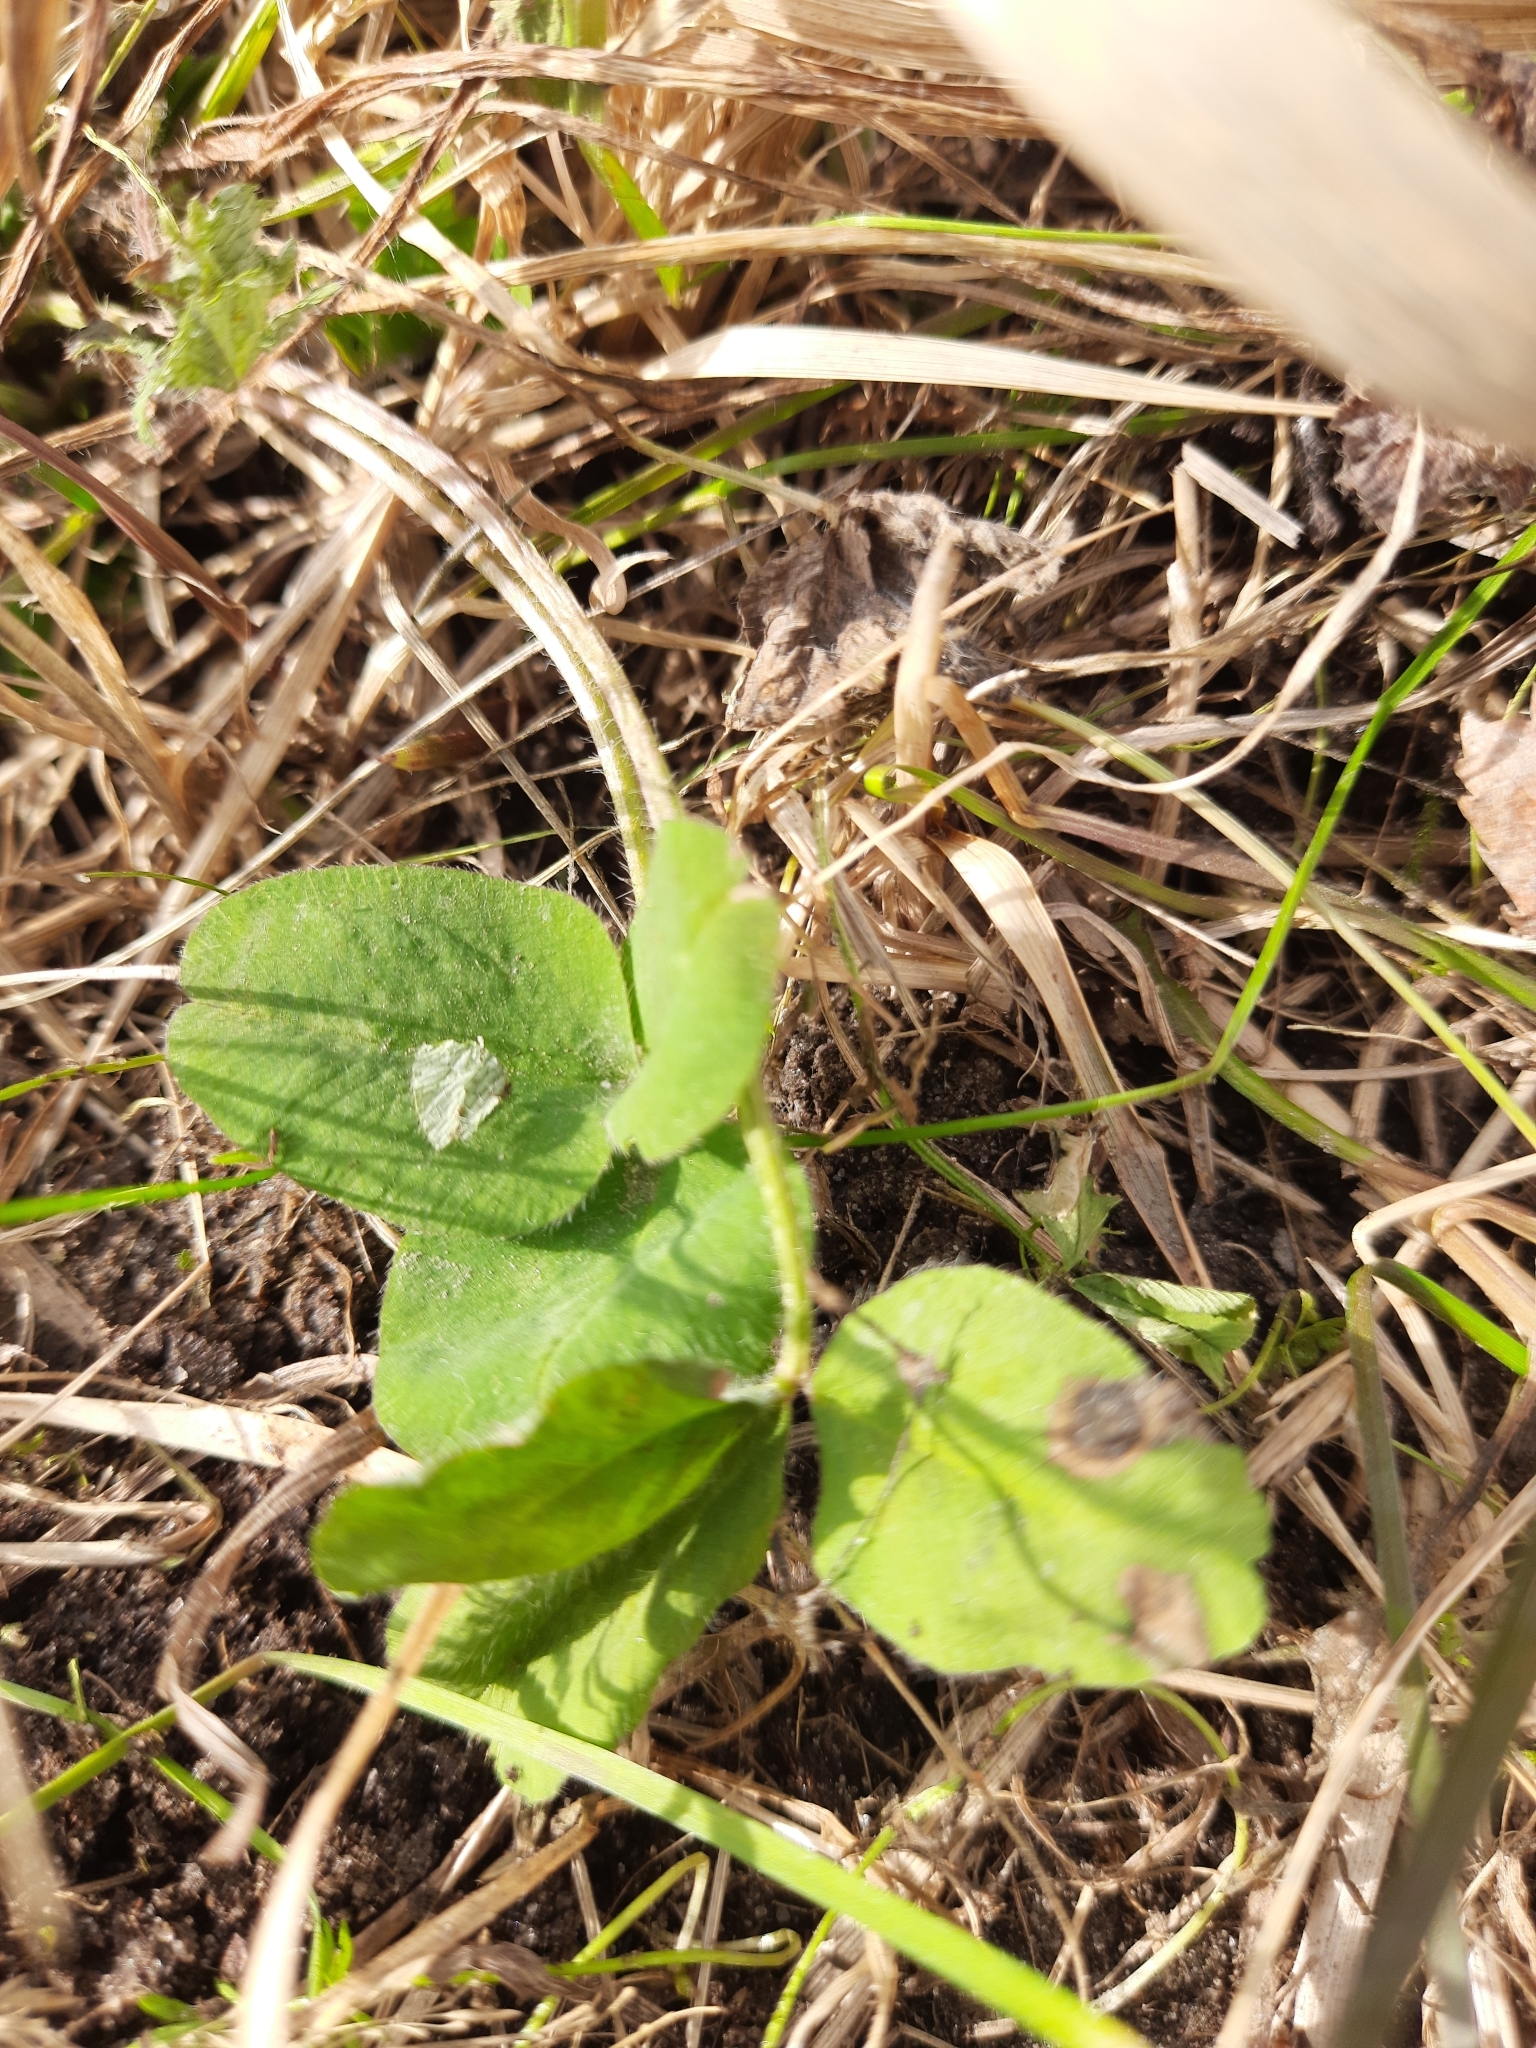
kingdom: Plantae
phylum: Tracheophyta
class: Magnoliopsida
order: Fabales
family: Fabaceae
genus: Trifolium
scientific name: Trifolium pratense
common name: Red clover
